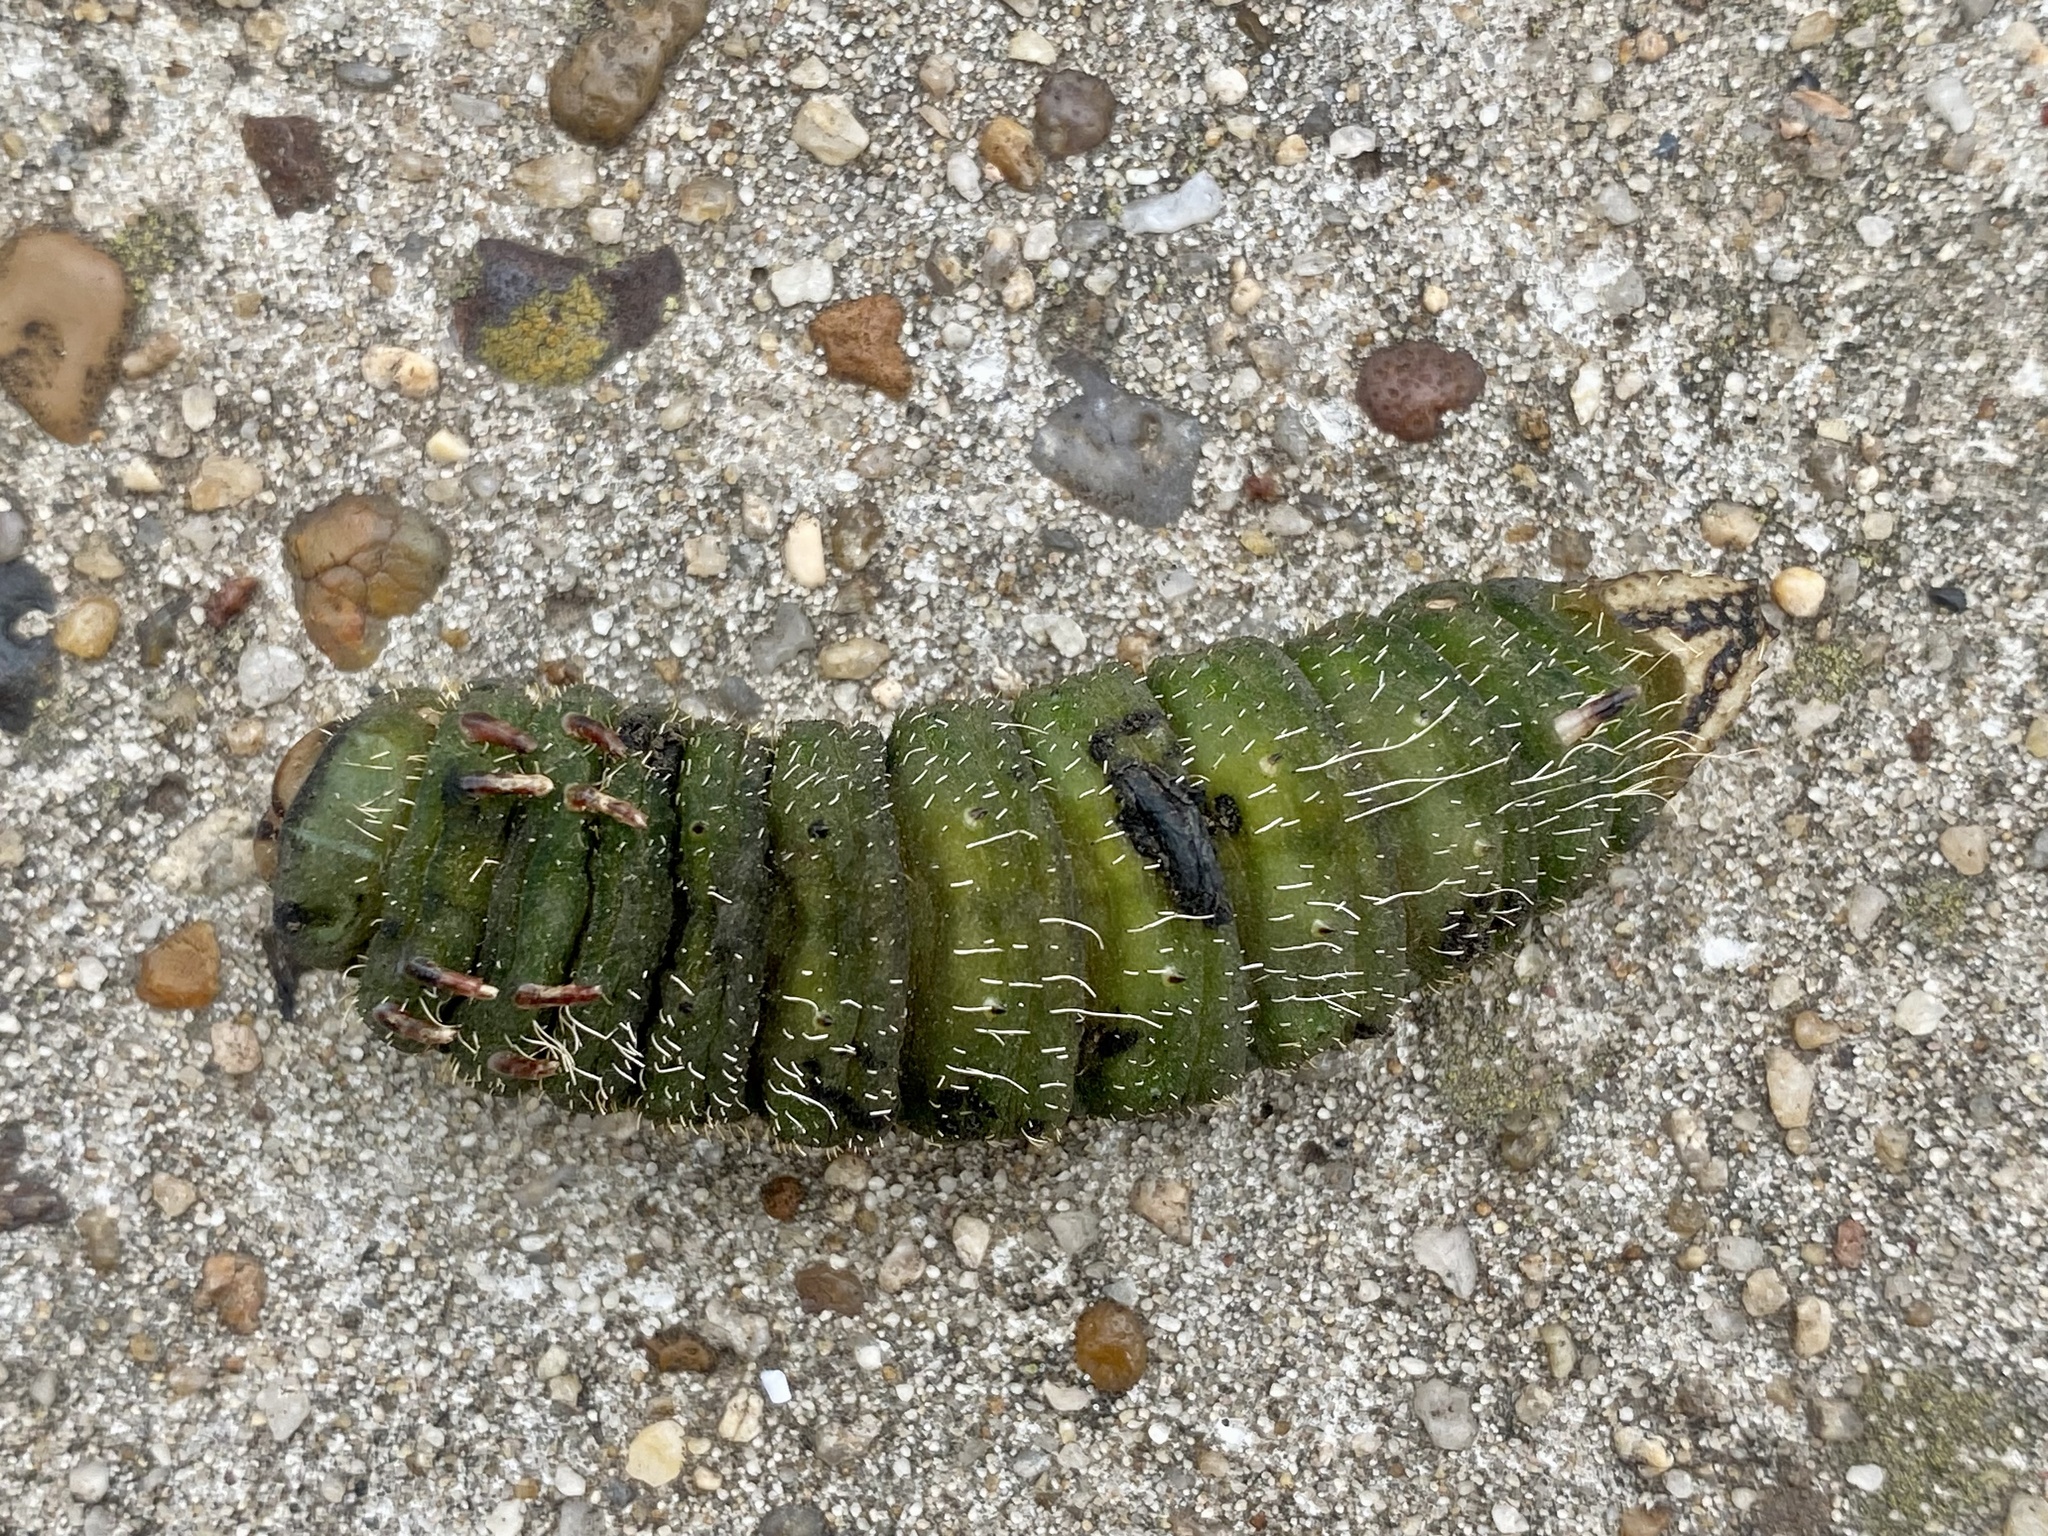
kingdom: Animalia
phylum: Arthropoda
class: Insecta
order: Lepidoptera
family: Saturniidae
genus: Eacles
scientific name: Eacles imperialis
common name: Imperial moth
